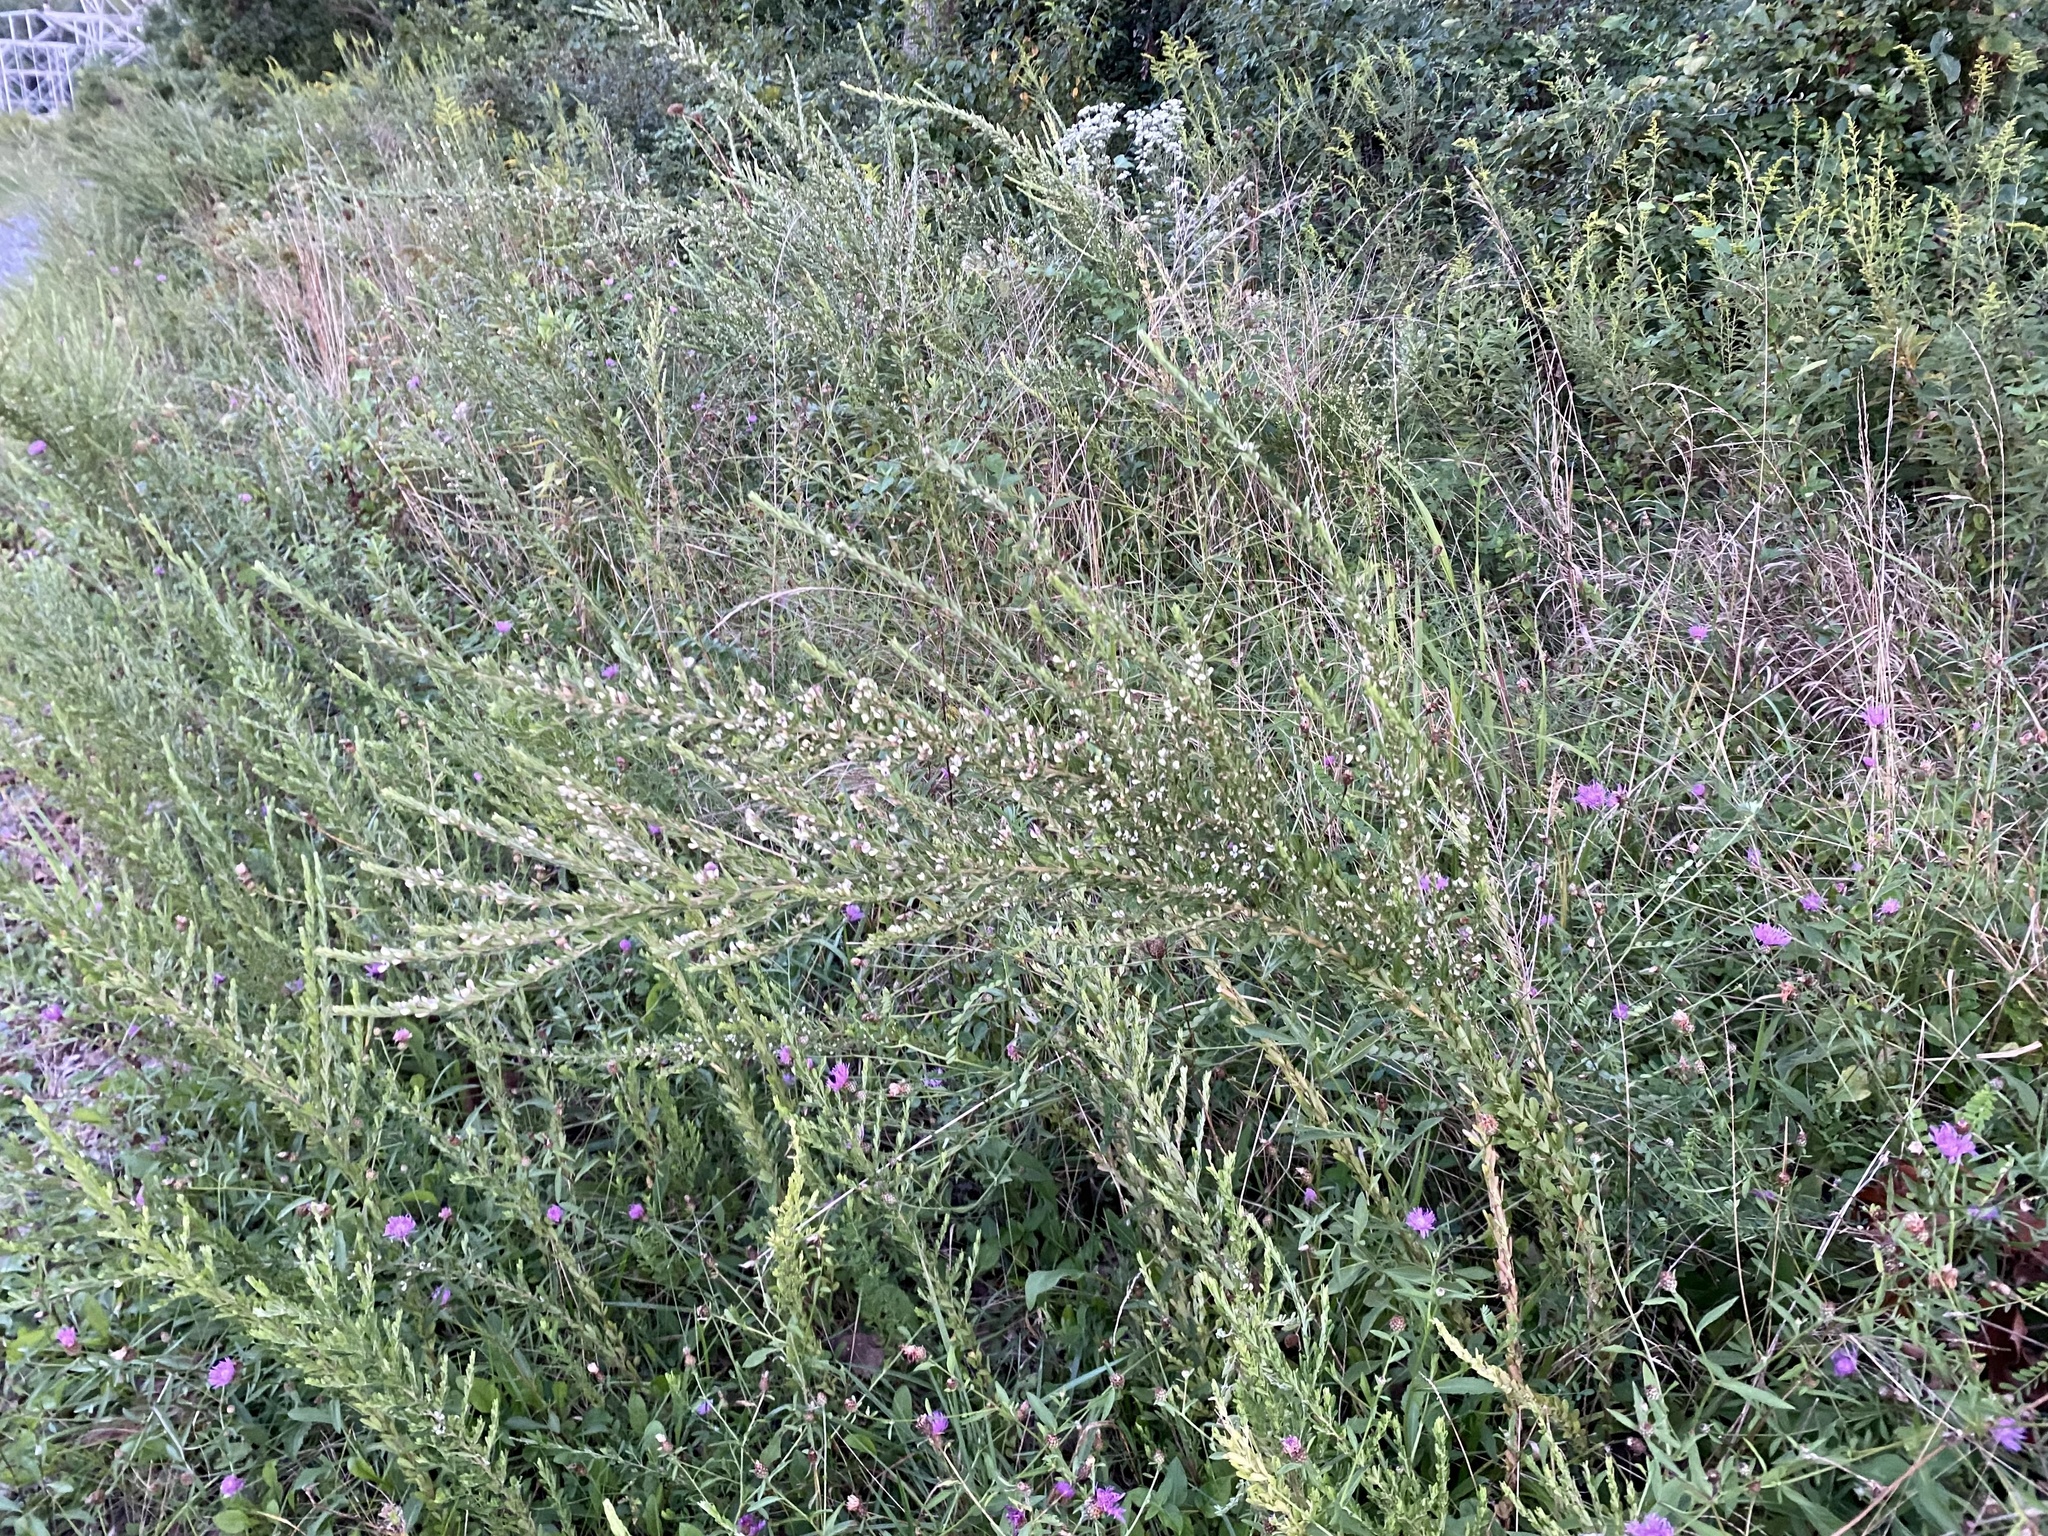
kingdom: Plantae
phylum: Tracheophyta
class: Magnoliopsida
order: Fabales
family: Fabaceae
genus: Lespedeza
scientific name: Lespedeza cuneata
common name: Chinese bush-clover
